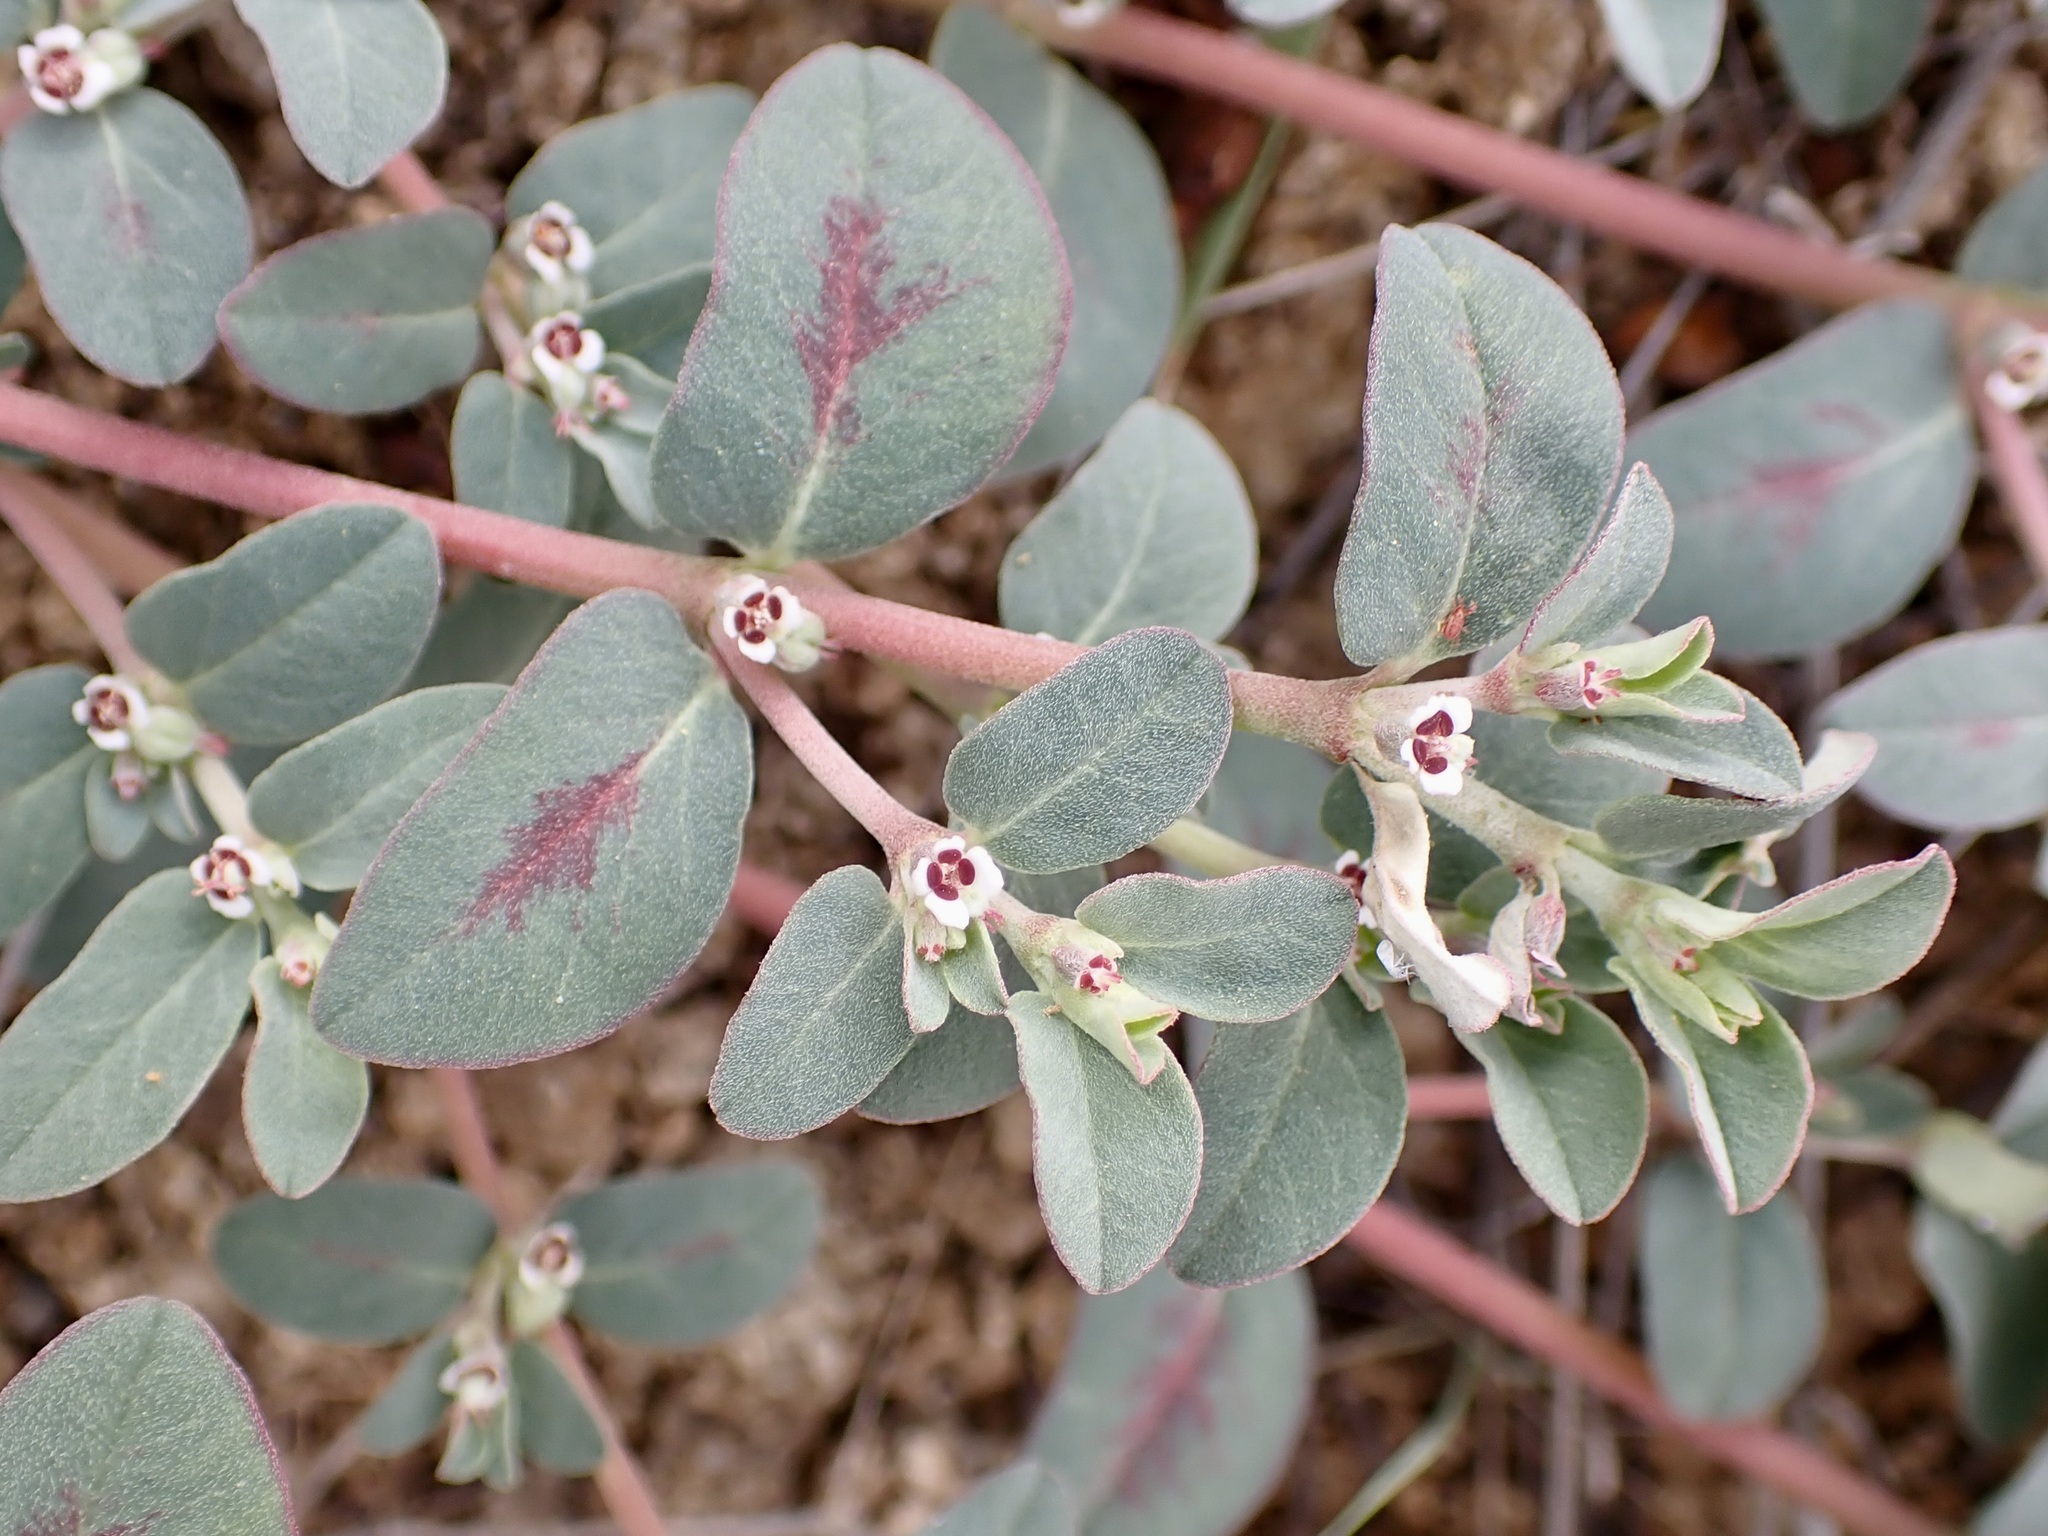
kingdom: Plantae
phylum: Tracheophyta
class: Magnoliopsida
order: Malpighiales
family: Euphorbiaceae
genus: Euphorbia
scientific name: Euphorbia pediculifera
